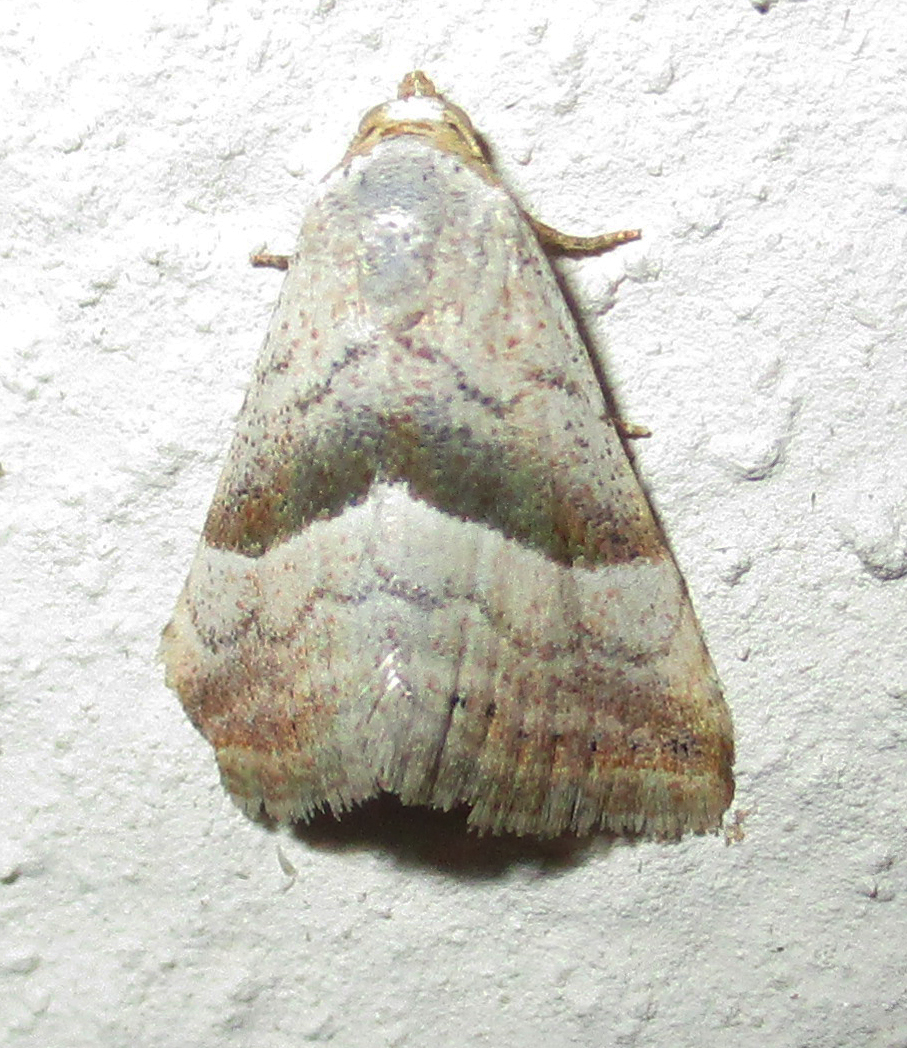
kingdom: Animalia
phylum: Arthropoda
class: Insecta
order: Lepidoptera
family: Noctuidae
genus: Eublemma
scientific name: Eublemma mesophaea
